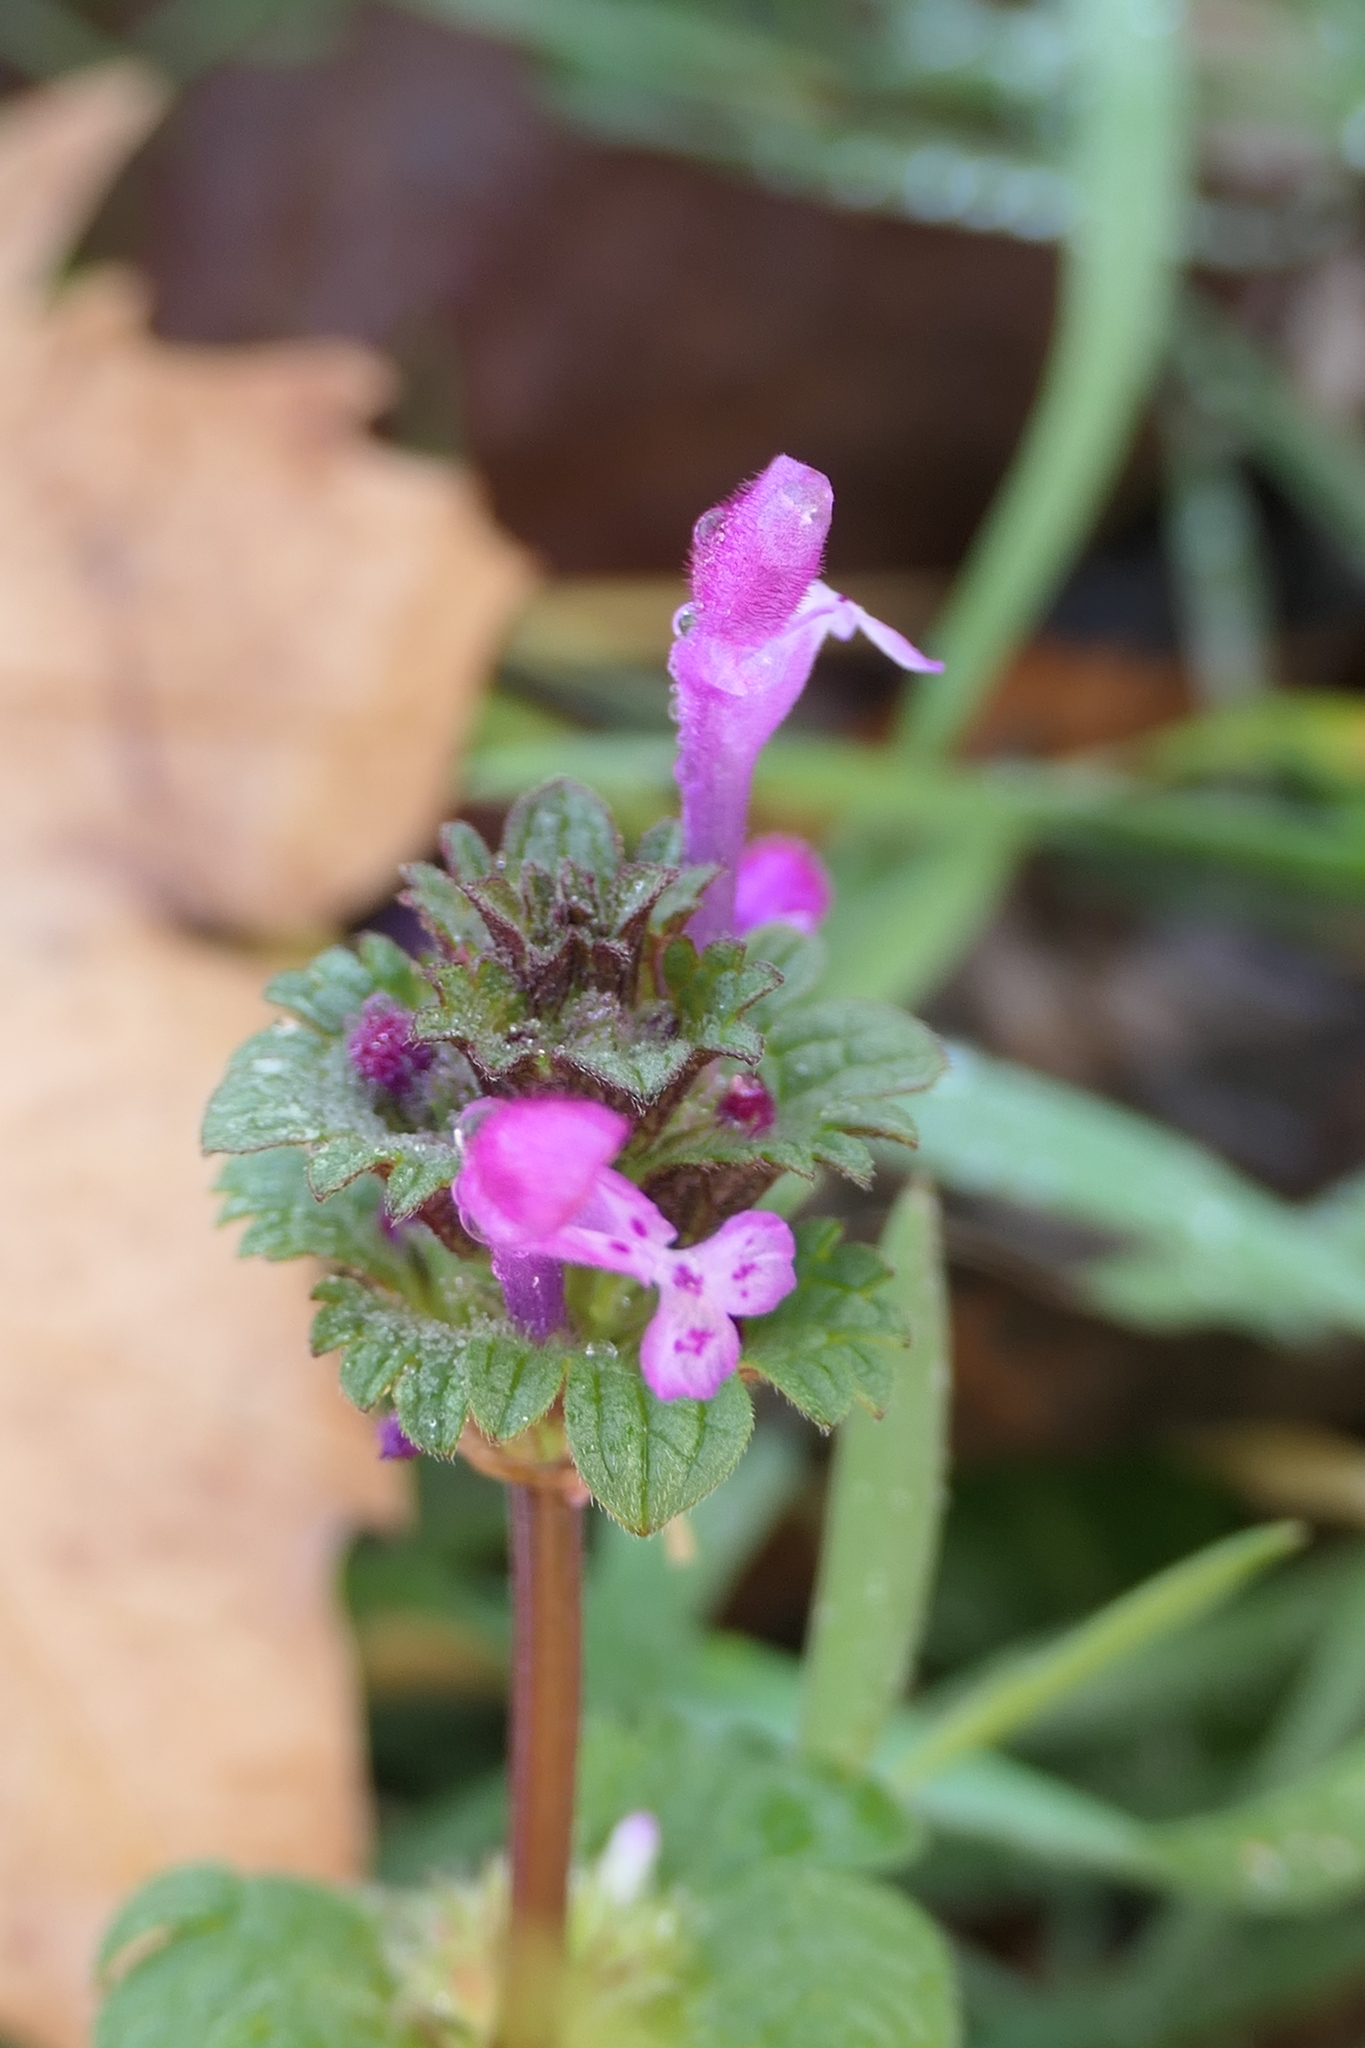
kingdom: Plantae
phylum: Tracheophyta
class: Magnoliopsida
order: Lamiales
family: Lamiaceae
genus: Lamium
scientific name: Lamium amplexicaule
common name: Henbit dead-nettle
